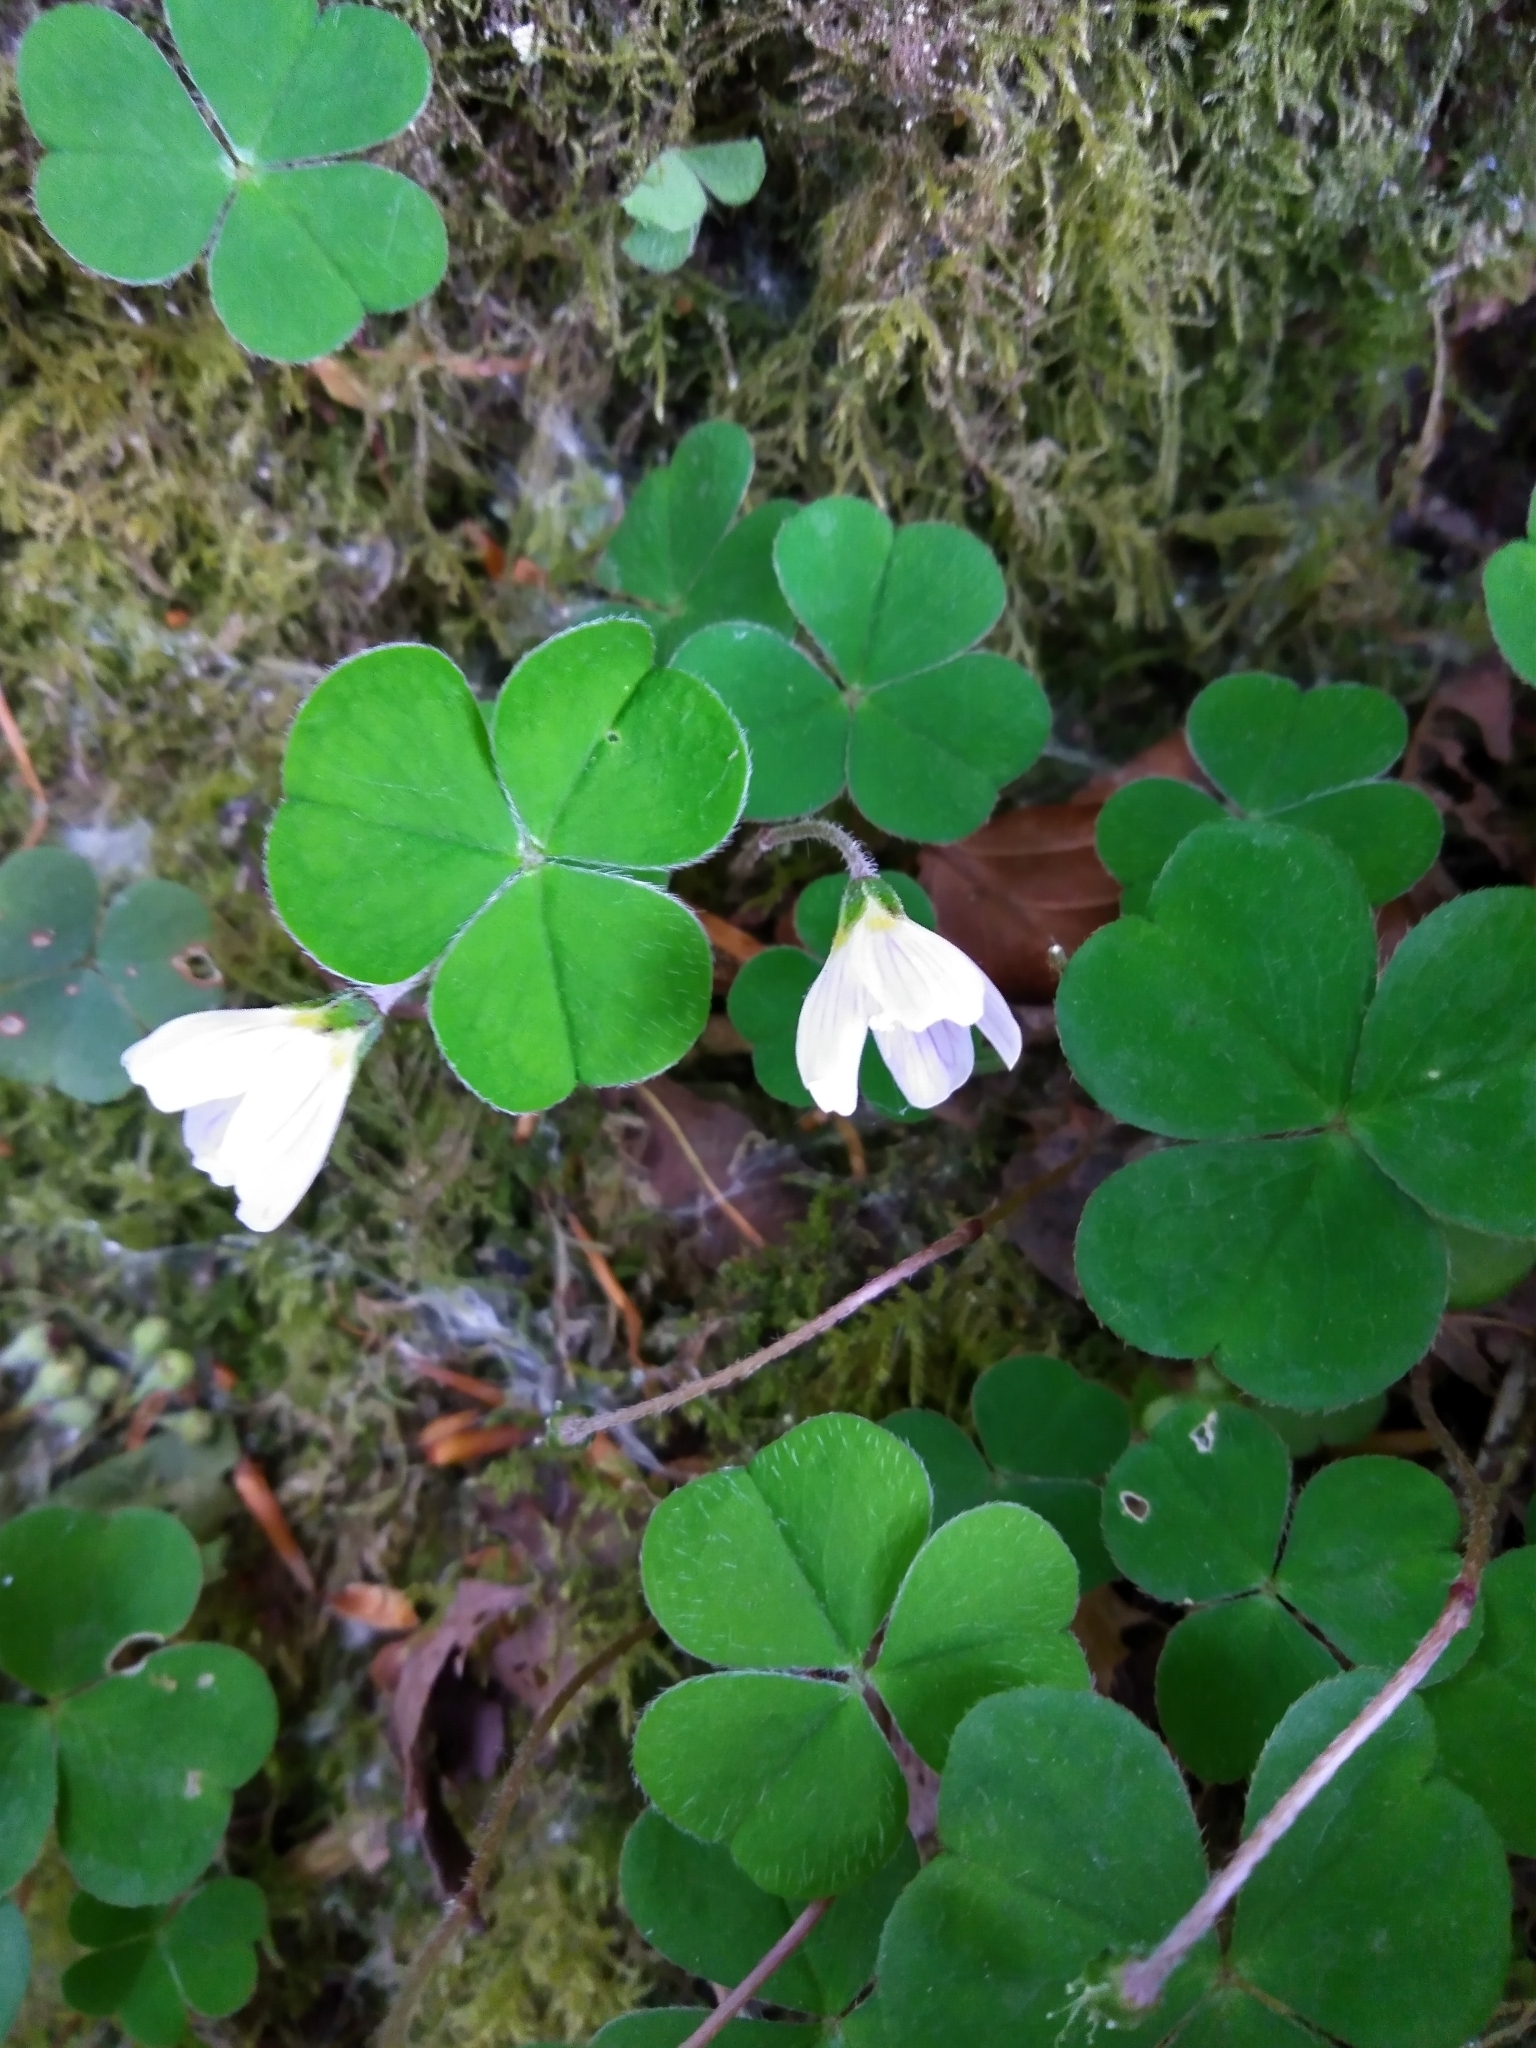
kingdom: Plantae
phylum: Tracheophyta
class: Magnoliopsida
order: Oxalidales
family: Oxalidaceae
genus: Oxalis
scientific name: Oxalis acetosella
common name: Wood-sorrel
